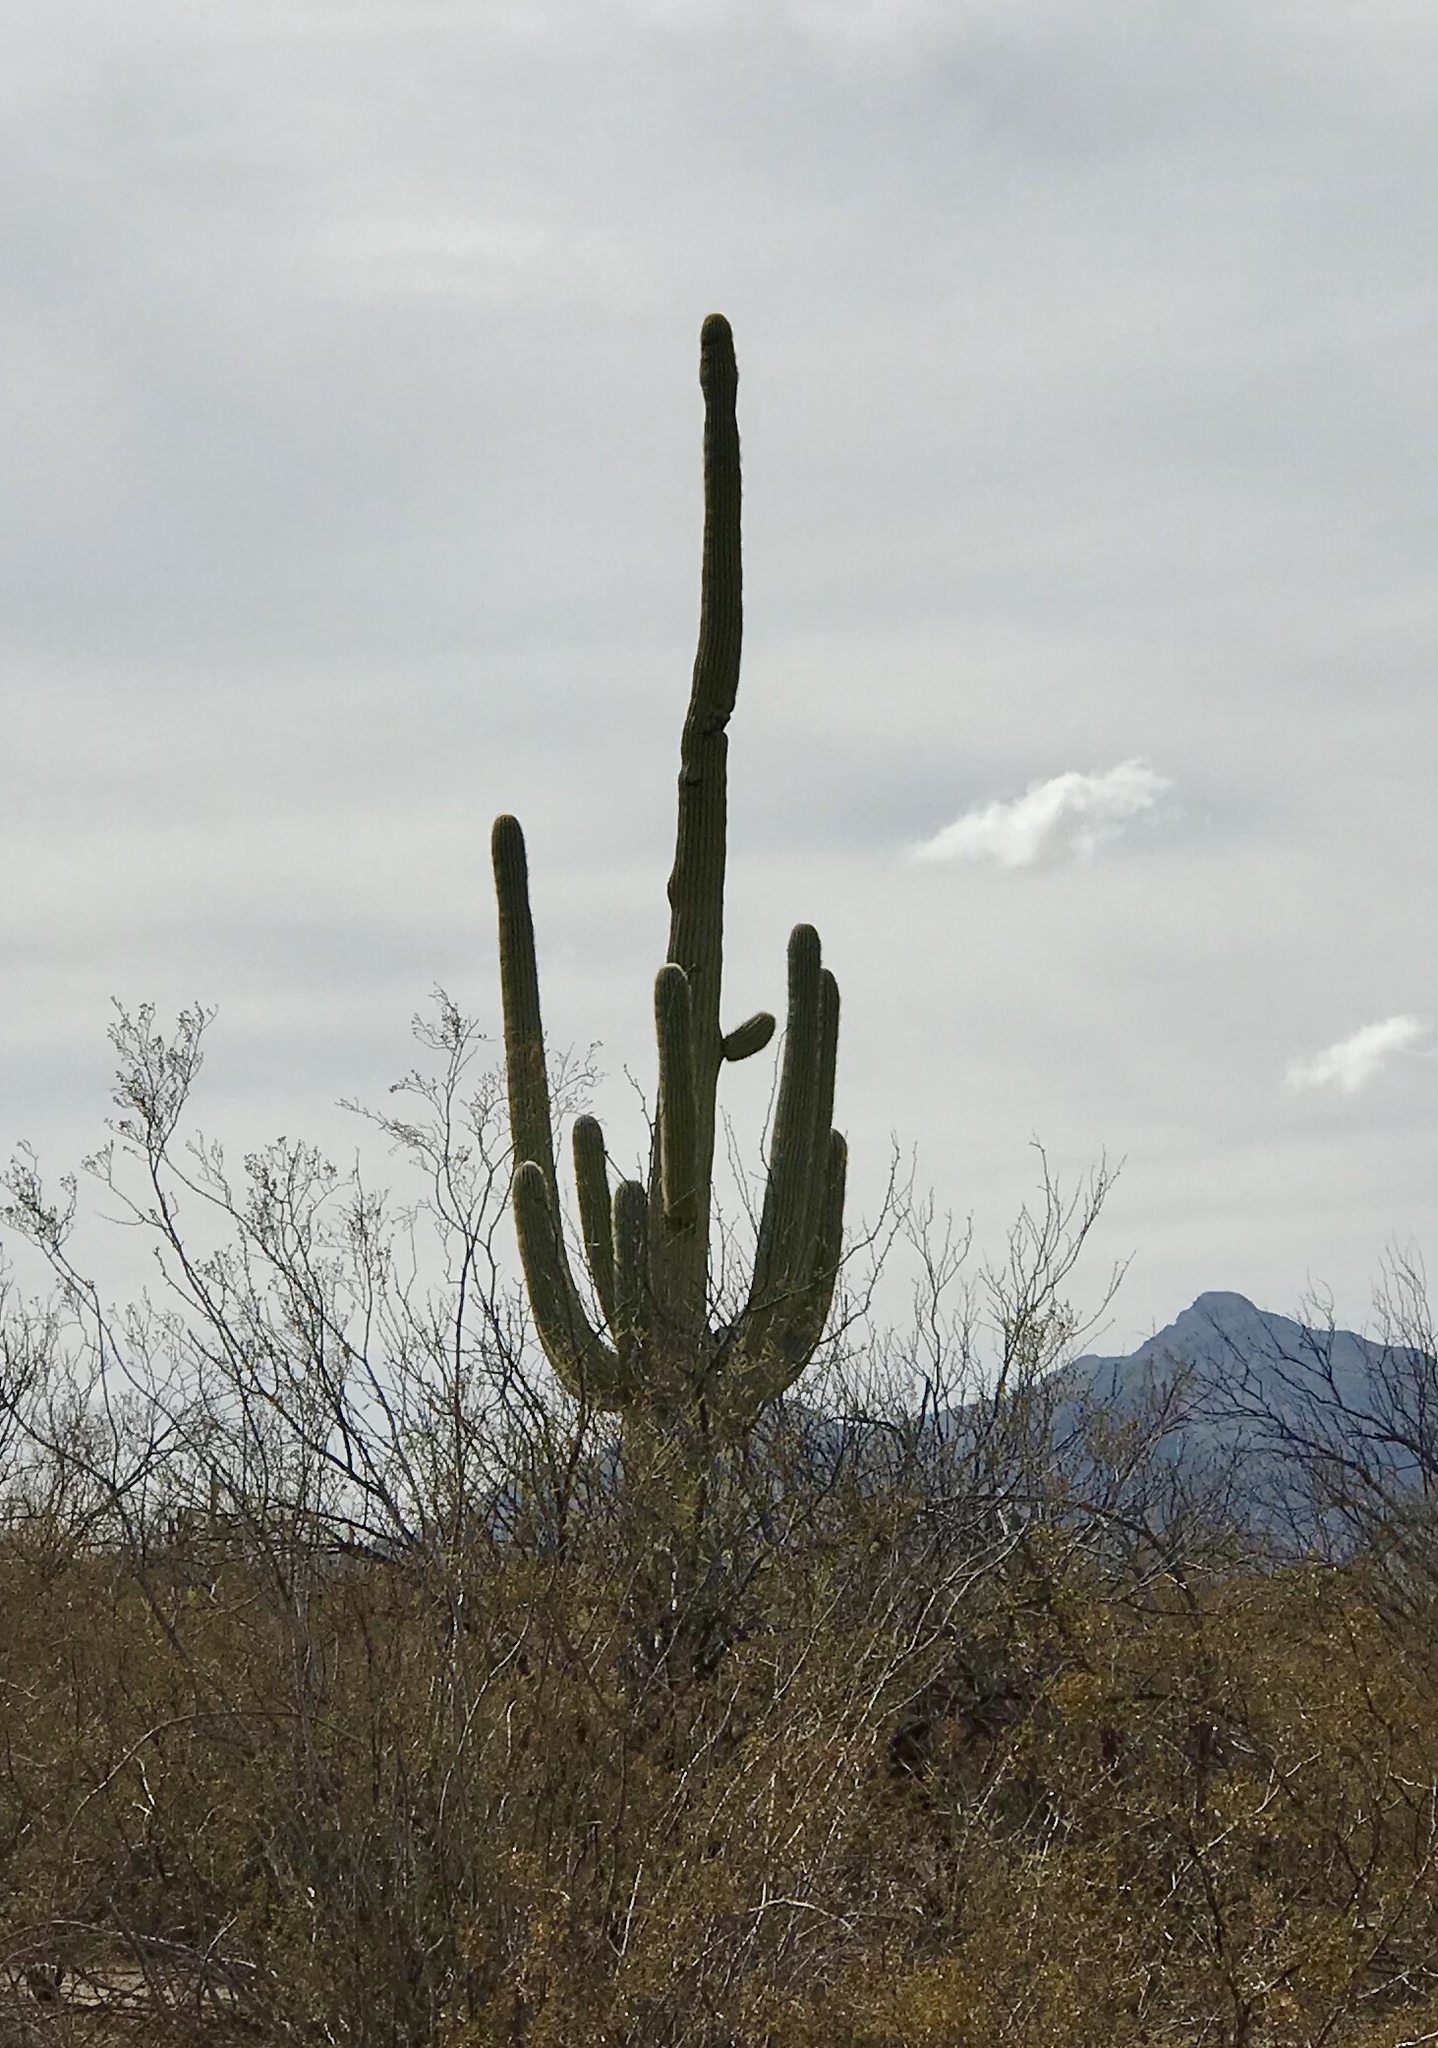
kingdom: Plantae
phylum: Tracheophyta
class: Magnoliopsida
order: Caryophyllales
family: Cactaceae
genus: Carnegiea
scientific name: Carnegiea gigantea
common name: Saguaro
